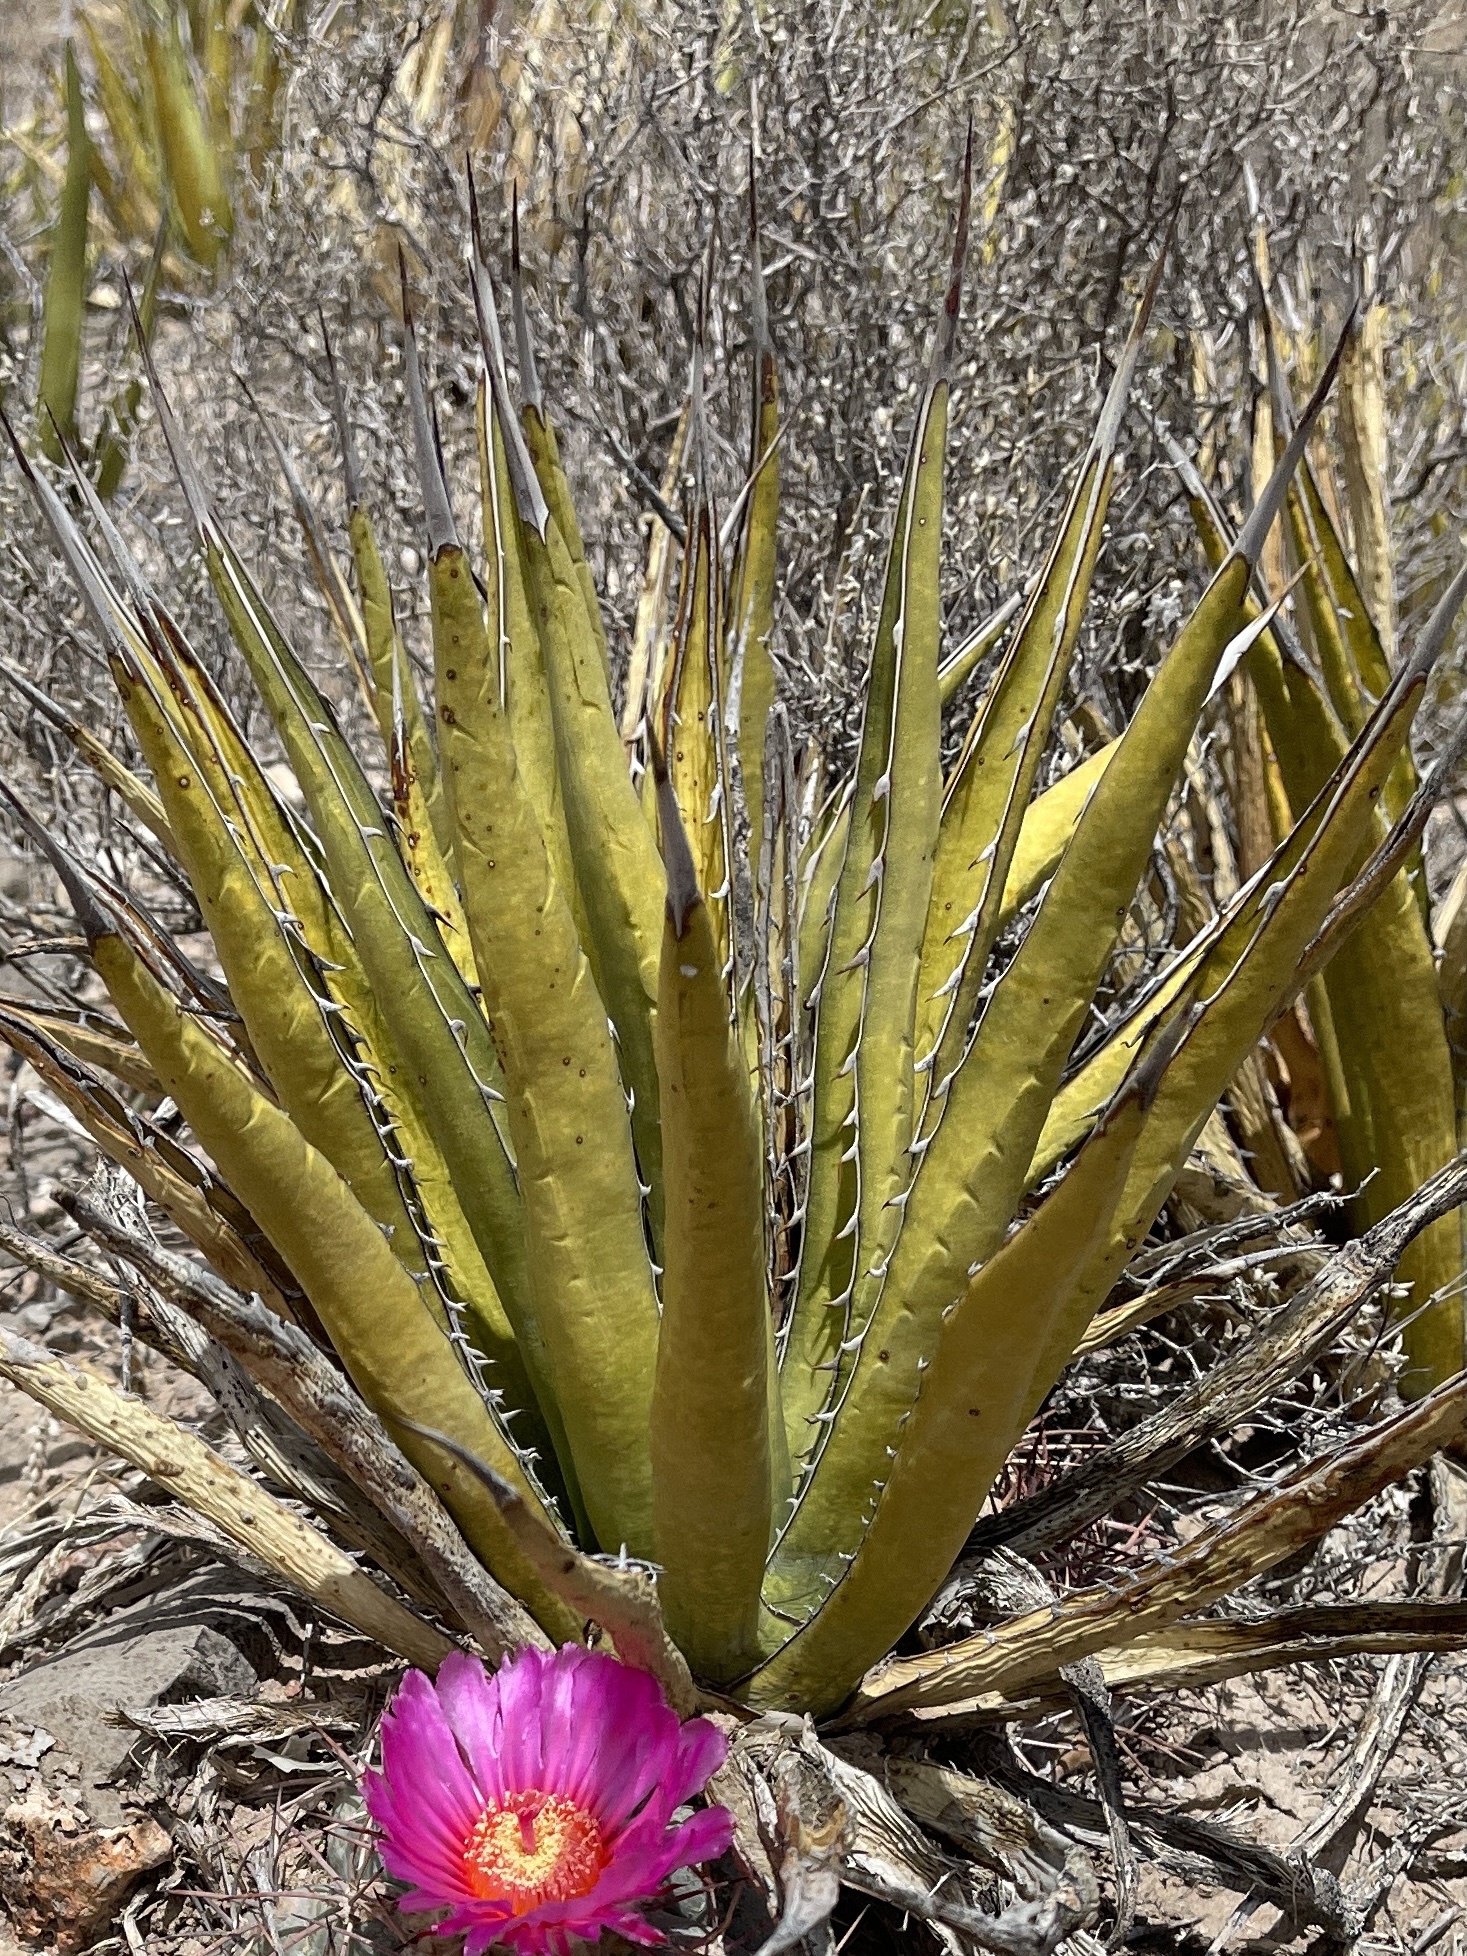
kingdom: Plantae
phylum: Tracheophyta
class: Liliopsida
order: Asparagales
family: Asparagaceae
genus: Agave
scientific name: Agave lechuguilla
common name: Lecheguilla agave
